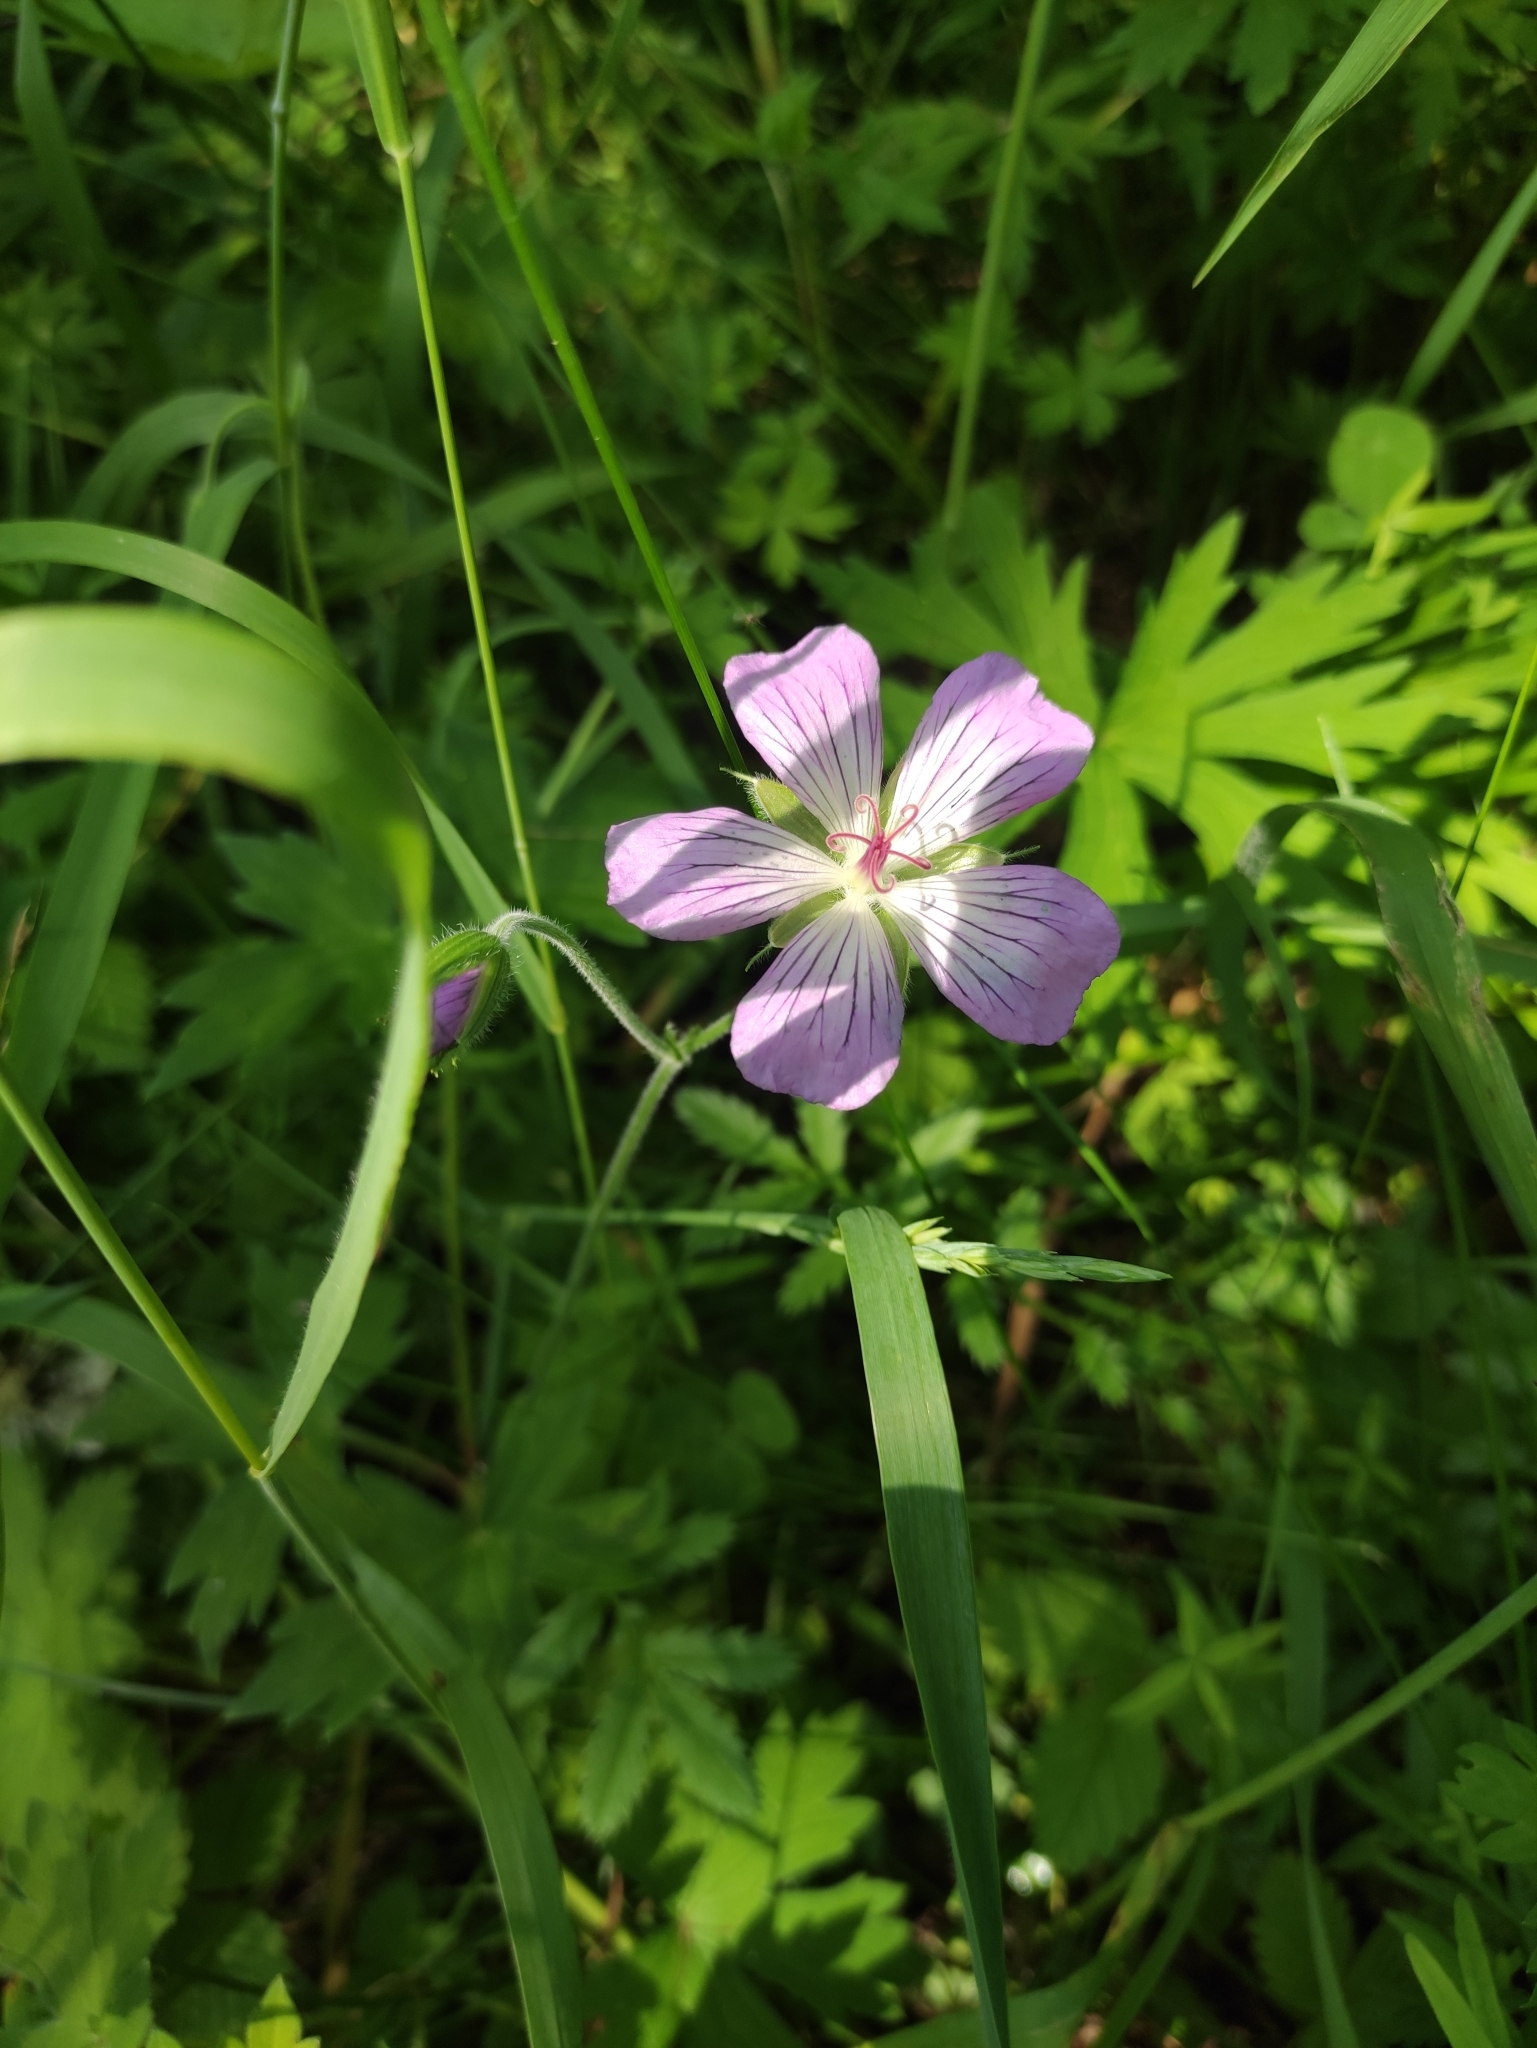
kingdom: Plantae
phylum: Tracheophyta
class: Magnoliopsida
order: Geraniales
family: Geraniaceae
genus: Geranium
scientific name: Geranium wlassovianum
